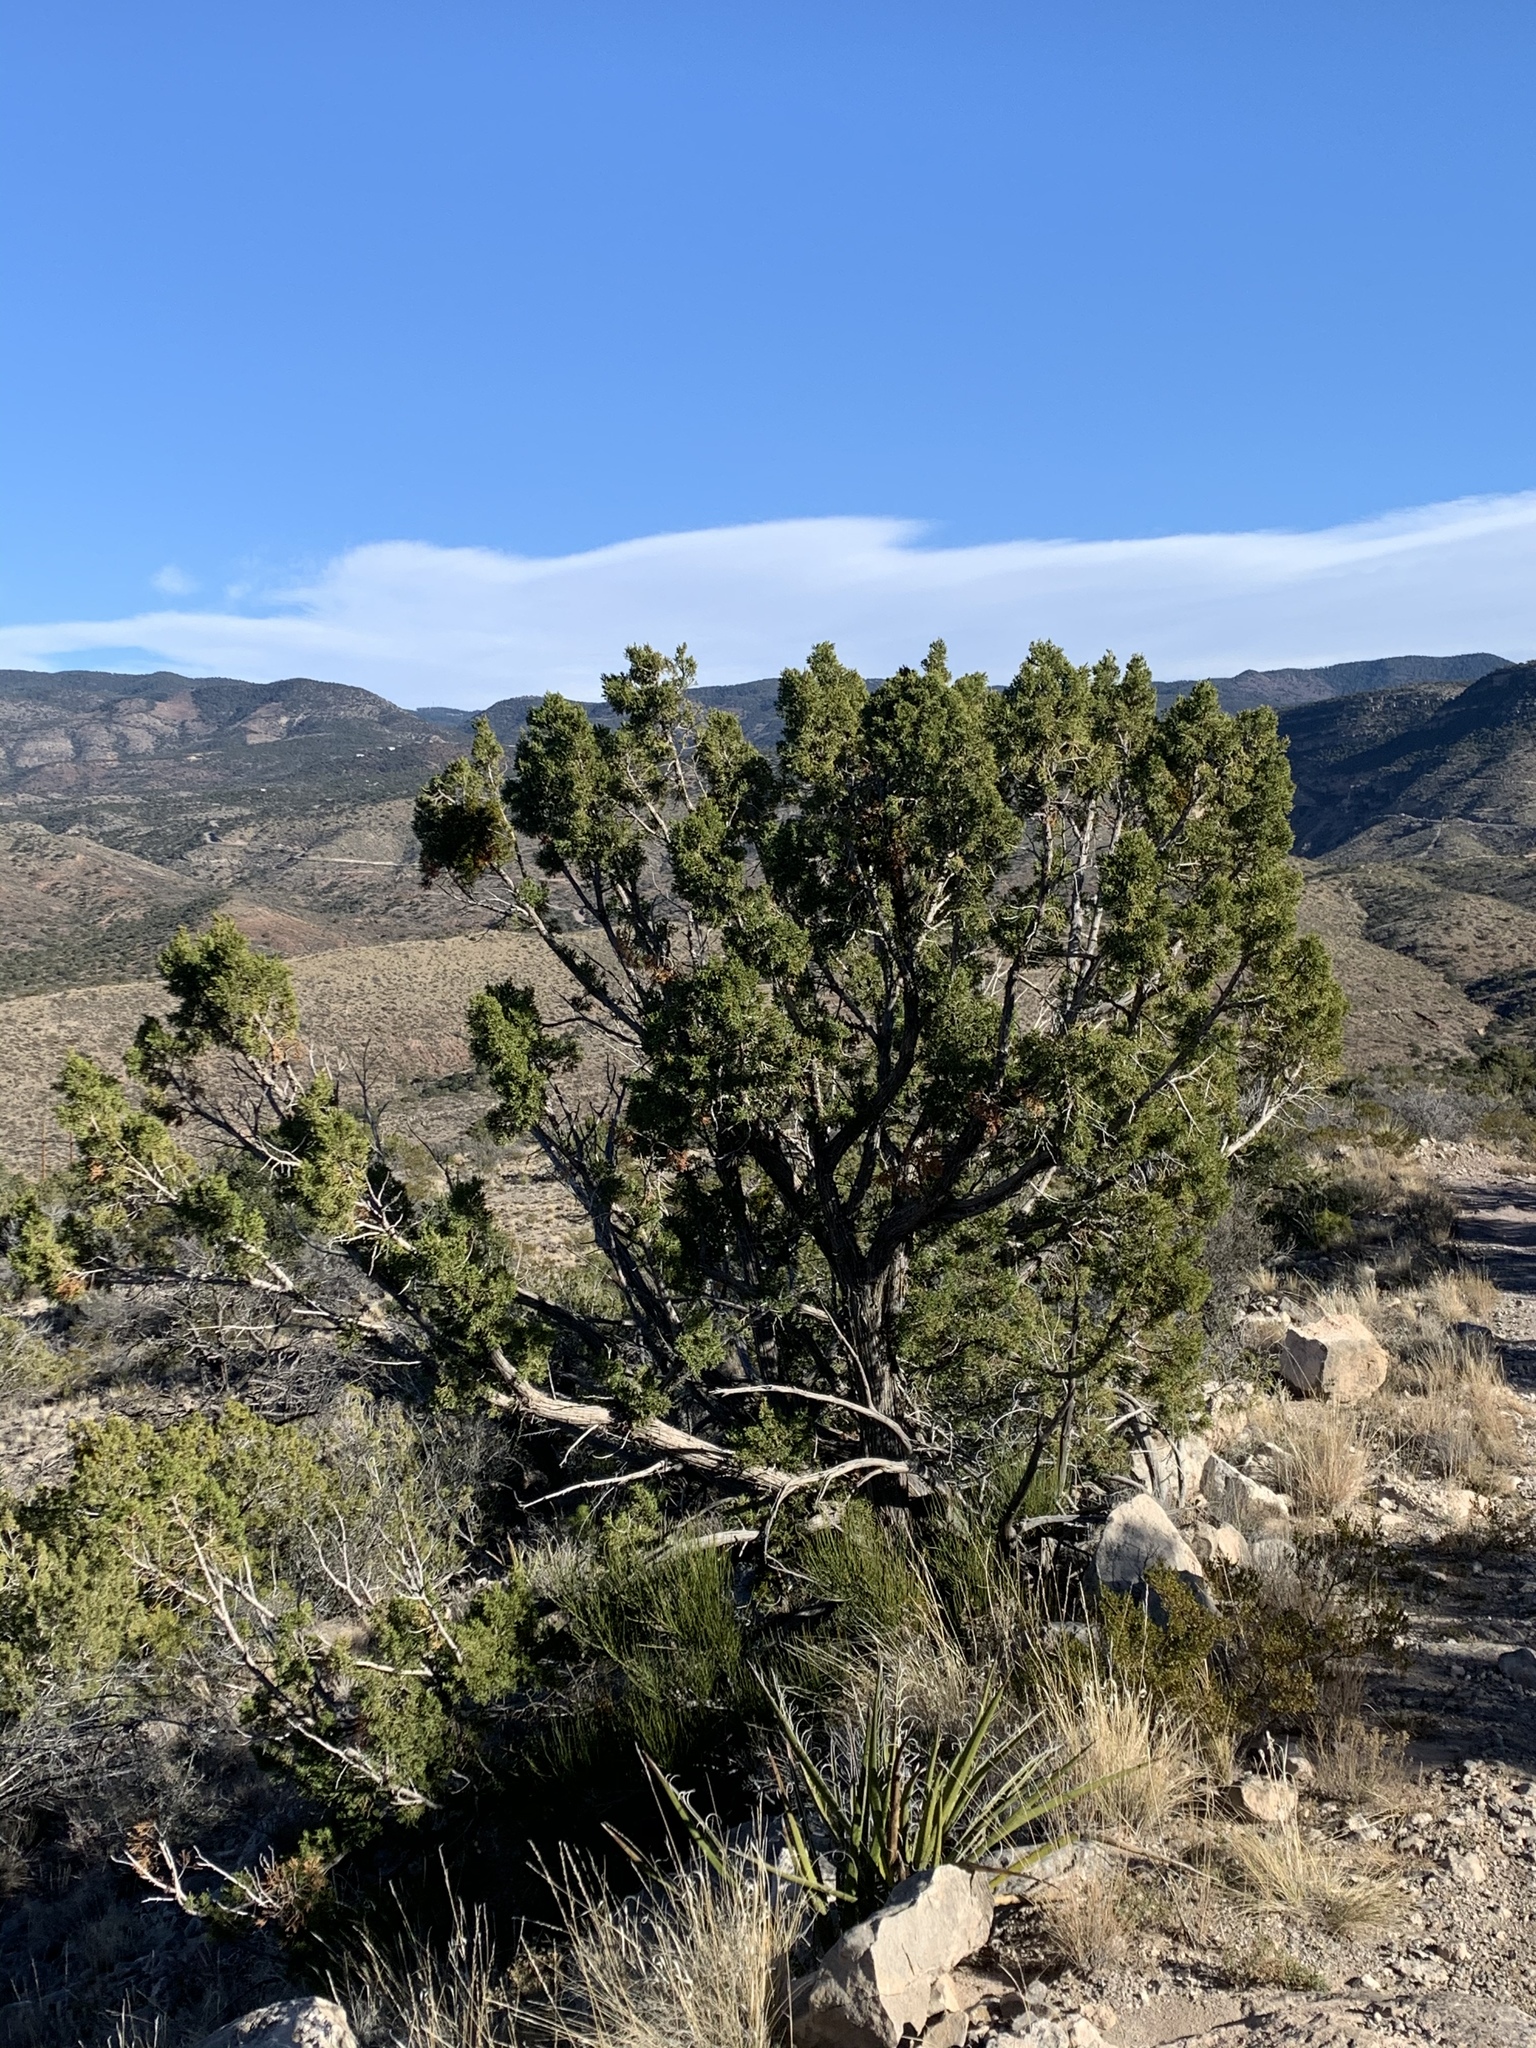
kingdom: Plantae
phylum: Tracheophyta
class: Pinopsida
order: Pinales
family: Cupressaceae
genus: Juniperus
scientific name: Juniperus monosperma
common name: One-seed juniper
